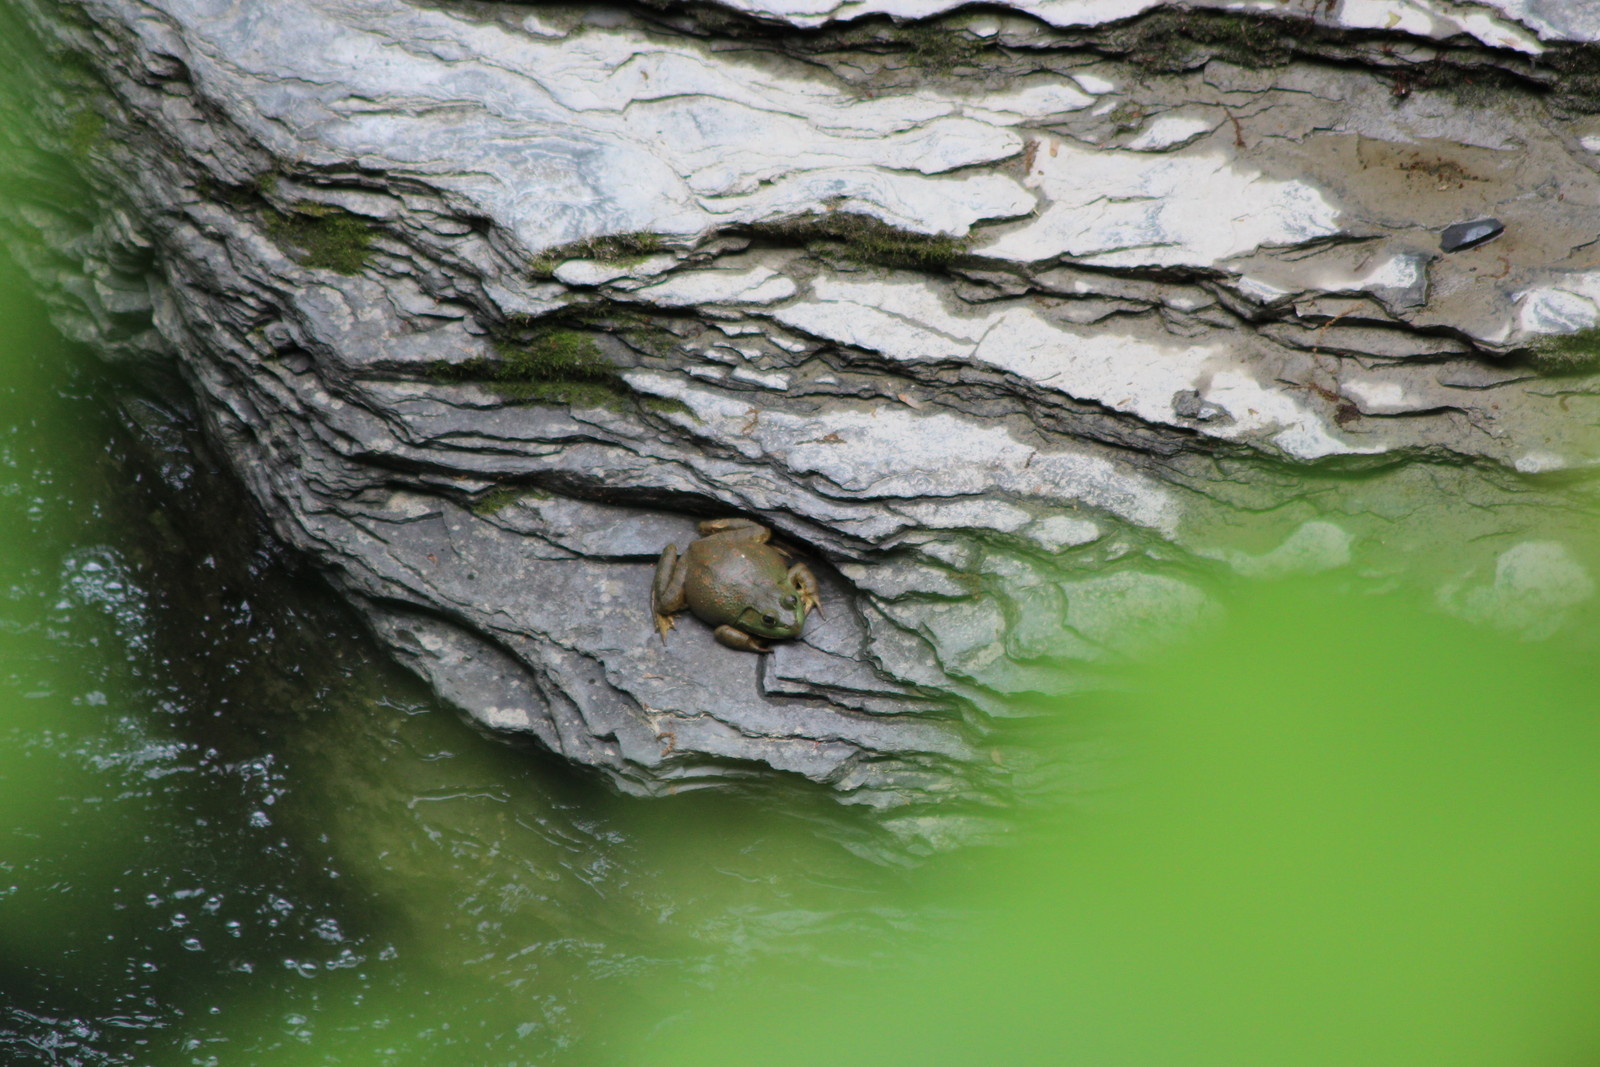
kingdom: Animalia
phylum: Chordata
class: Amphibia
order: Anura
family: Ranidae
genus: Lithobates
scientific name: Lithobates catesbeianus
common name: American bullfrog
